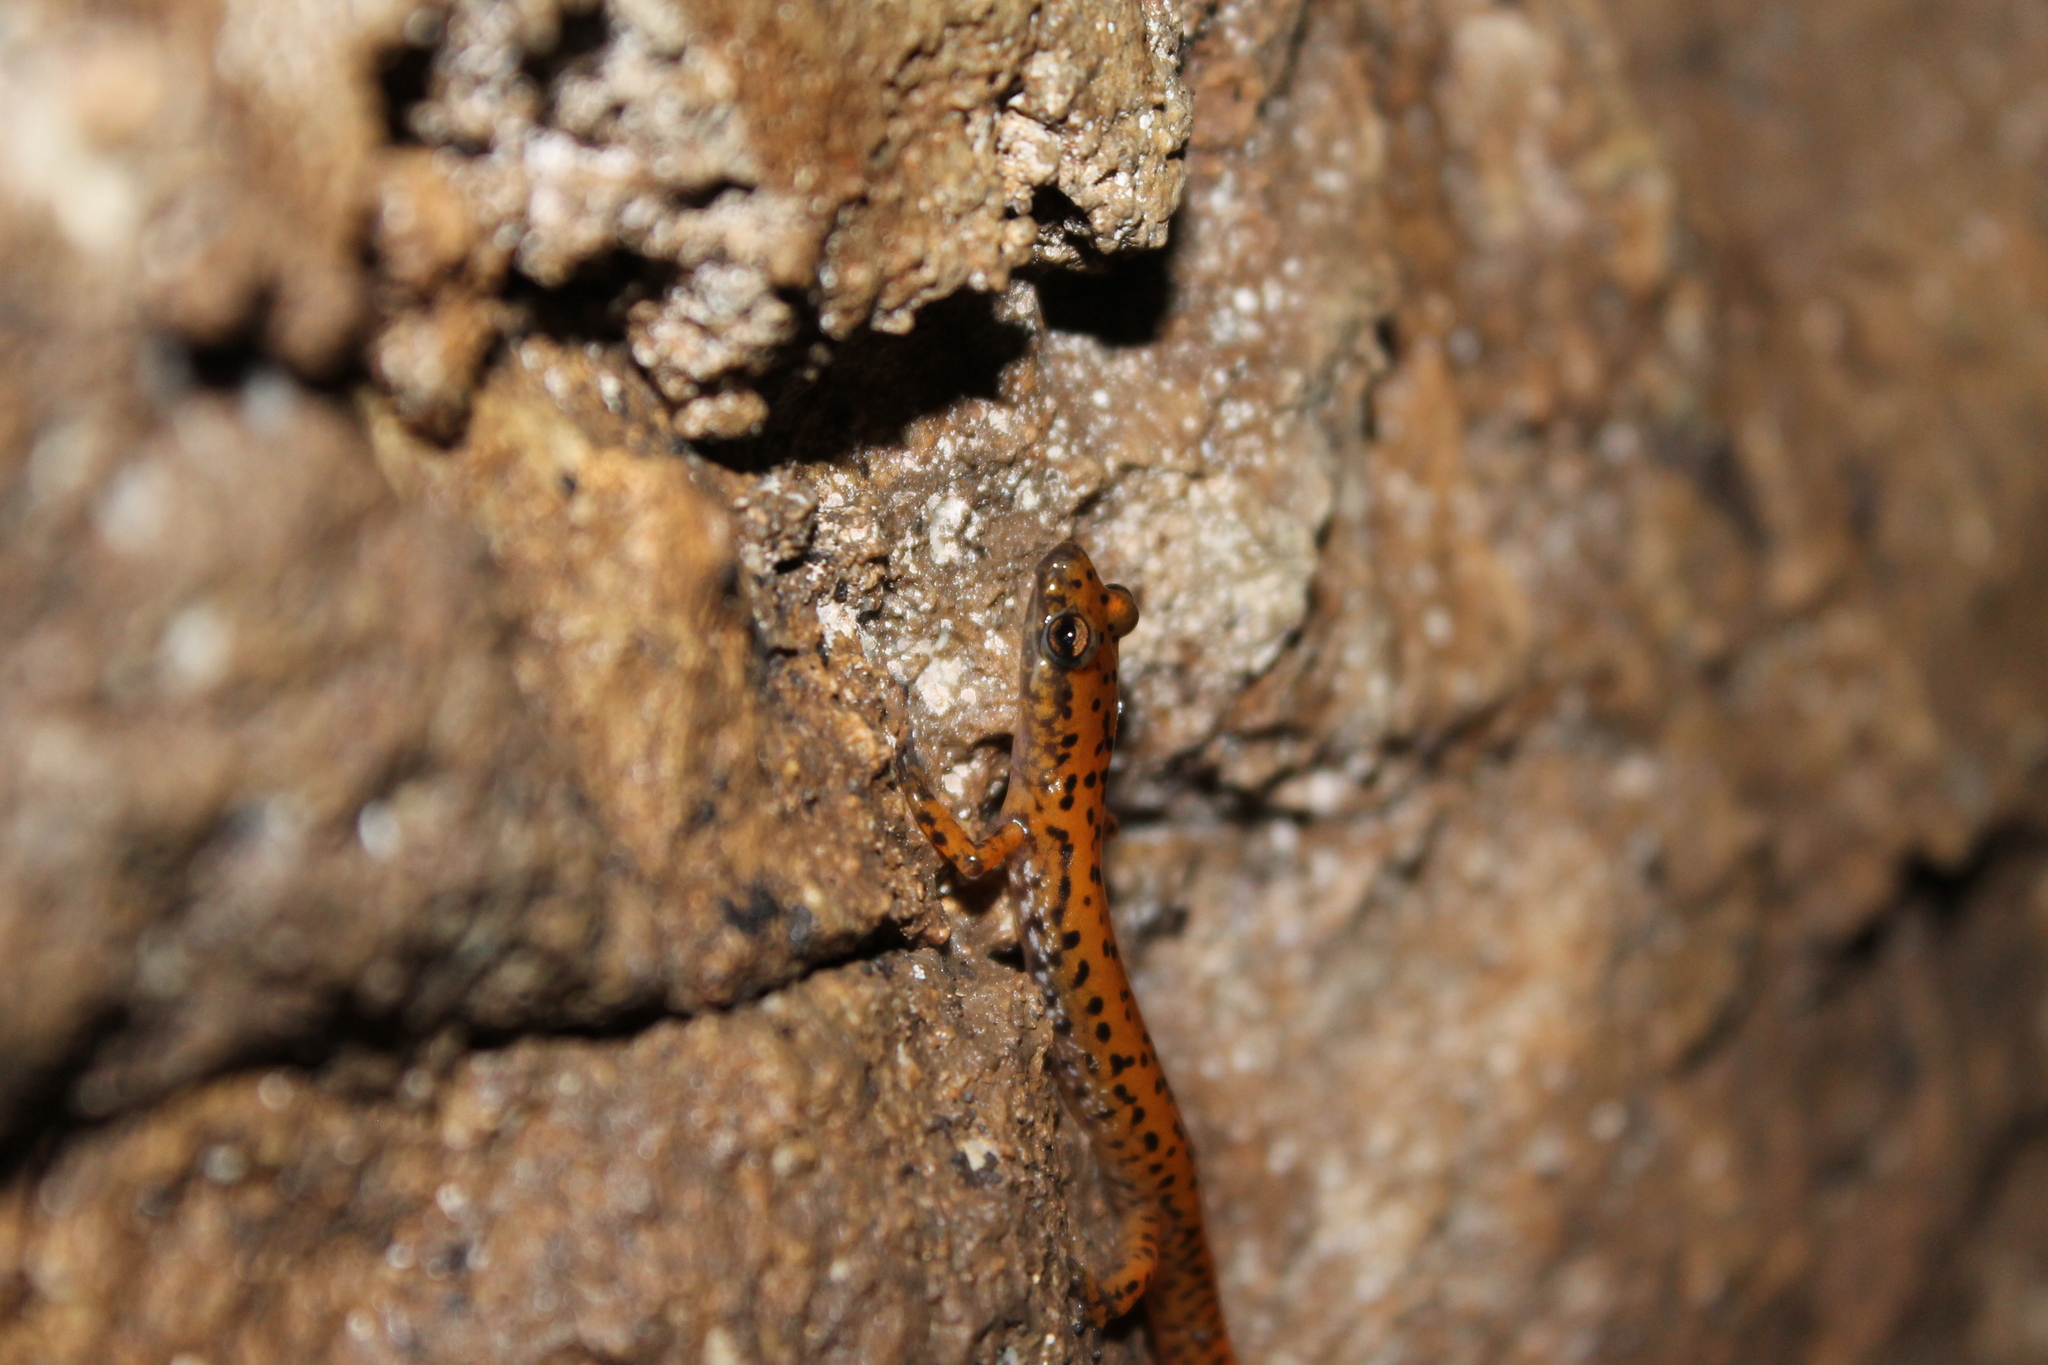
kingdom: Animalia
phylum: Chordata
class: Amphibia
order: Caudata
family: Plethodontidae
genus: Eurycea
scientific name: Eurycea lucifuga
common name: Cave salamander
